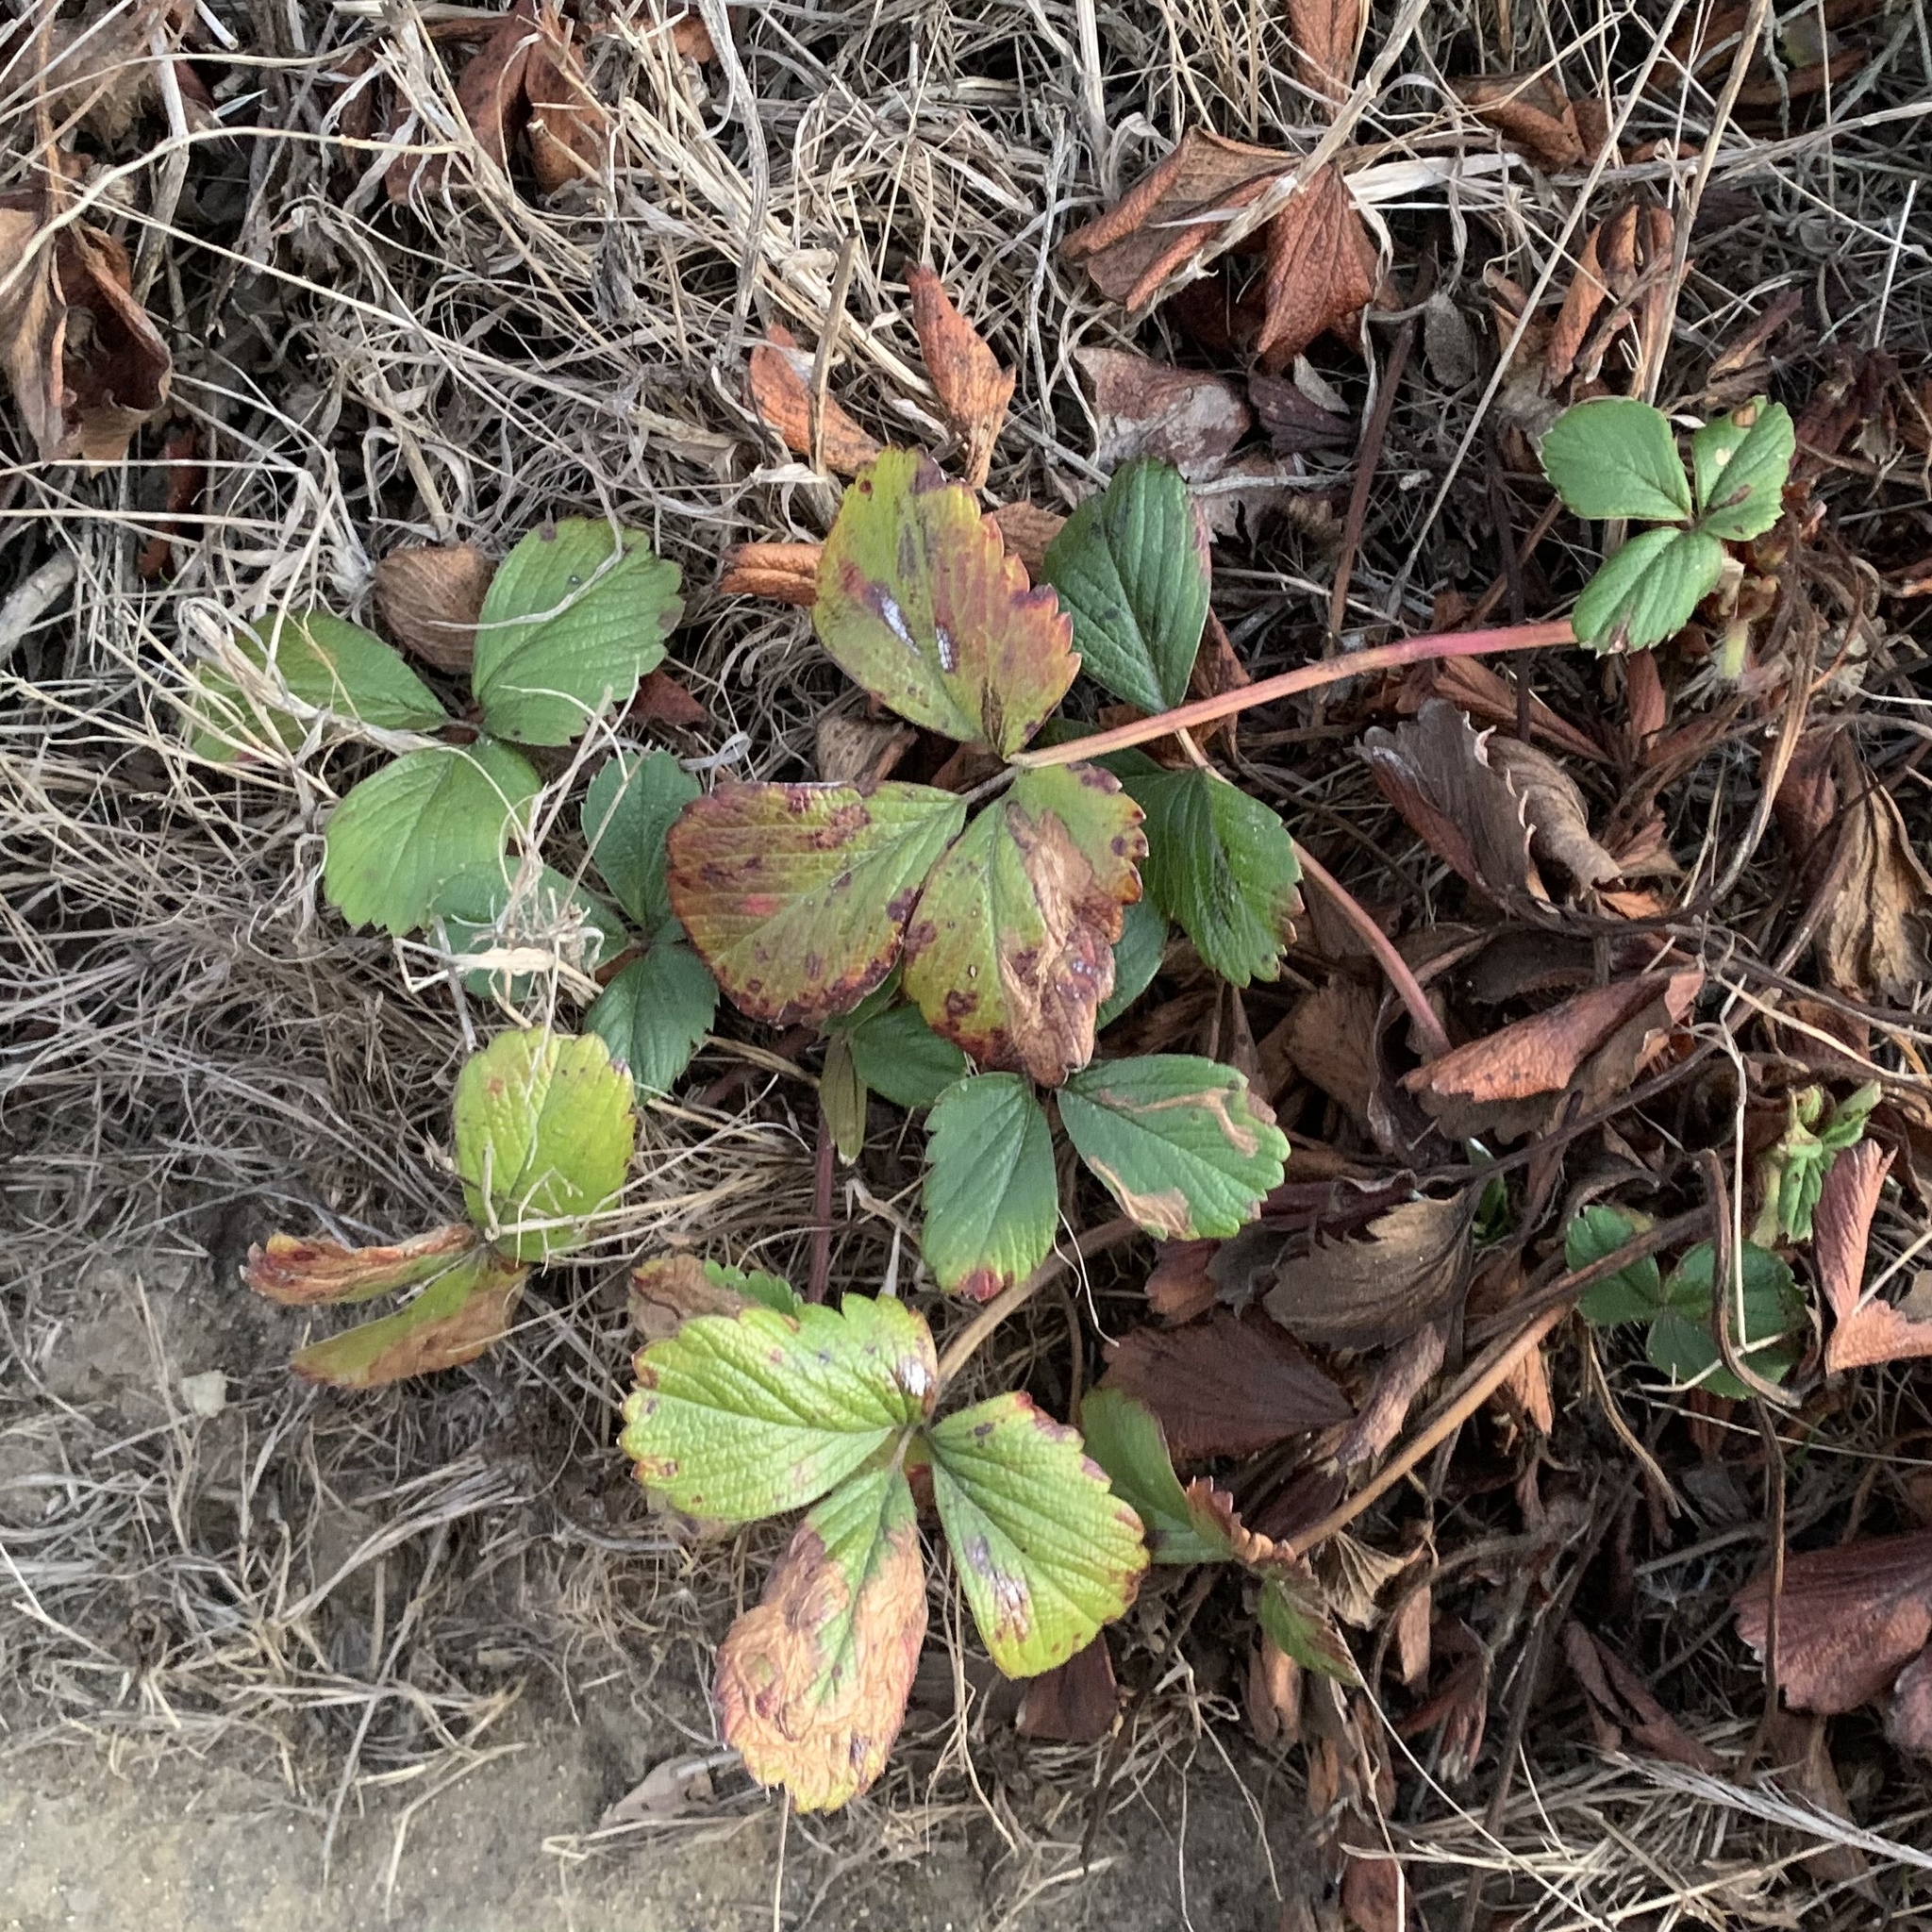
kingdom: Animalia
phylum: Arthropoda
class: Insecta
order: Lepidoptera
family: Tischeriidae
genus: Coptotriche
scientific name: Coptotriche confusa
